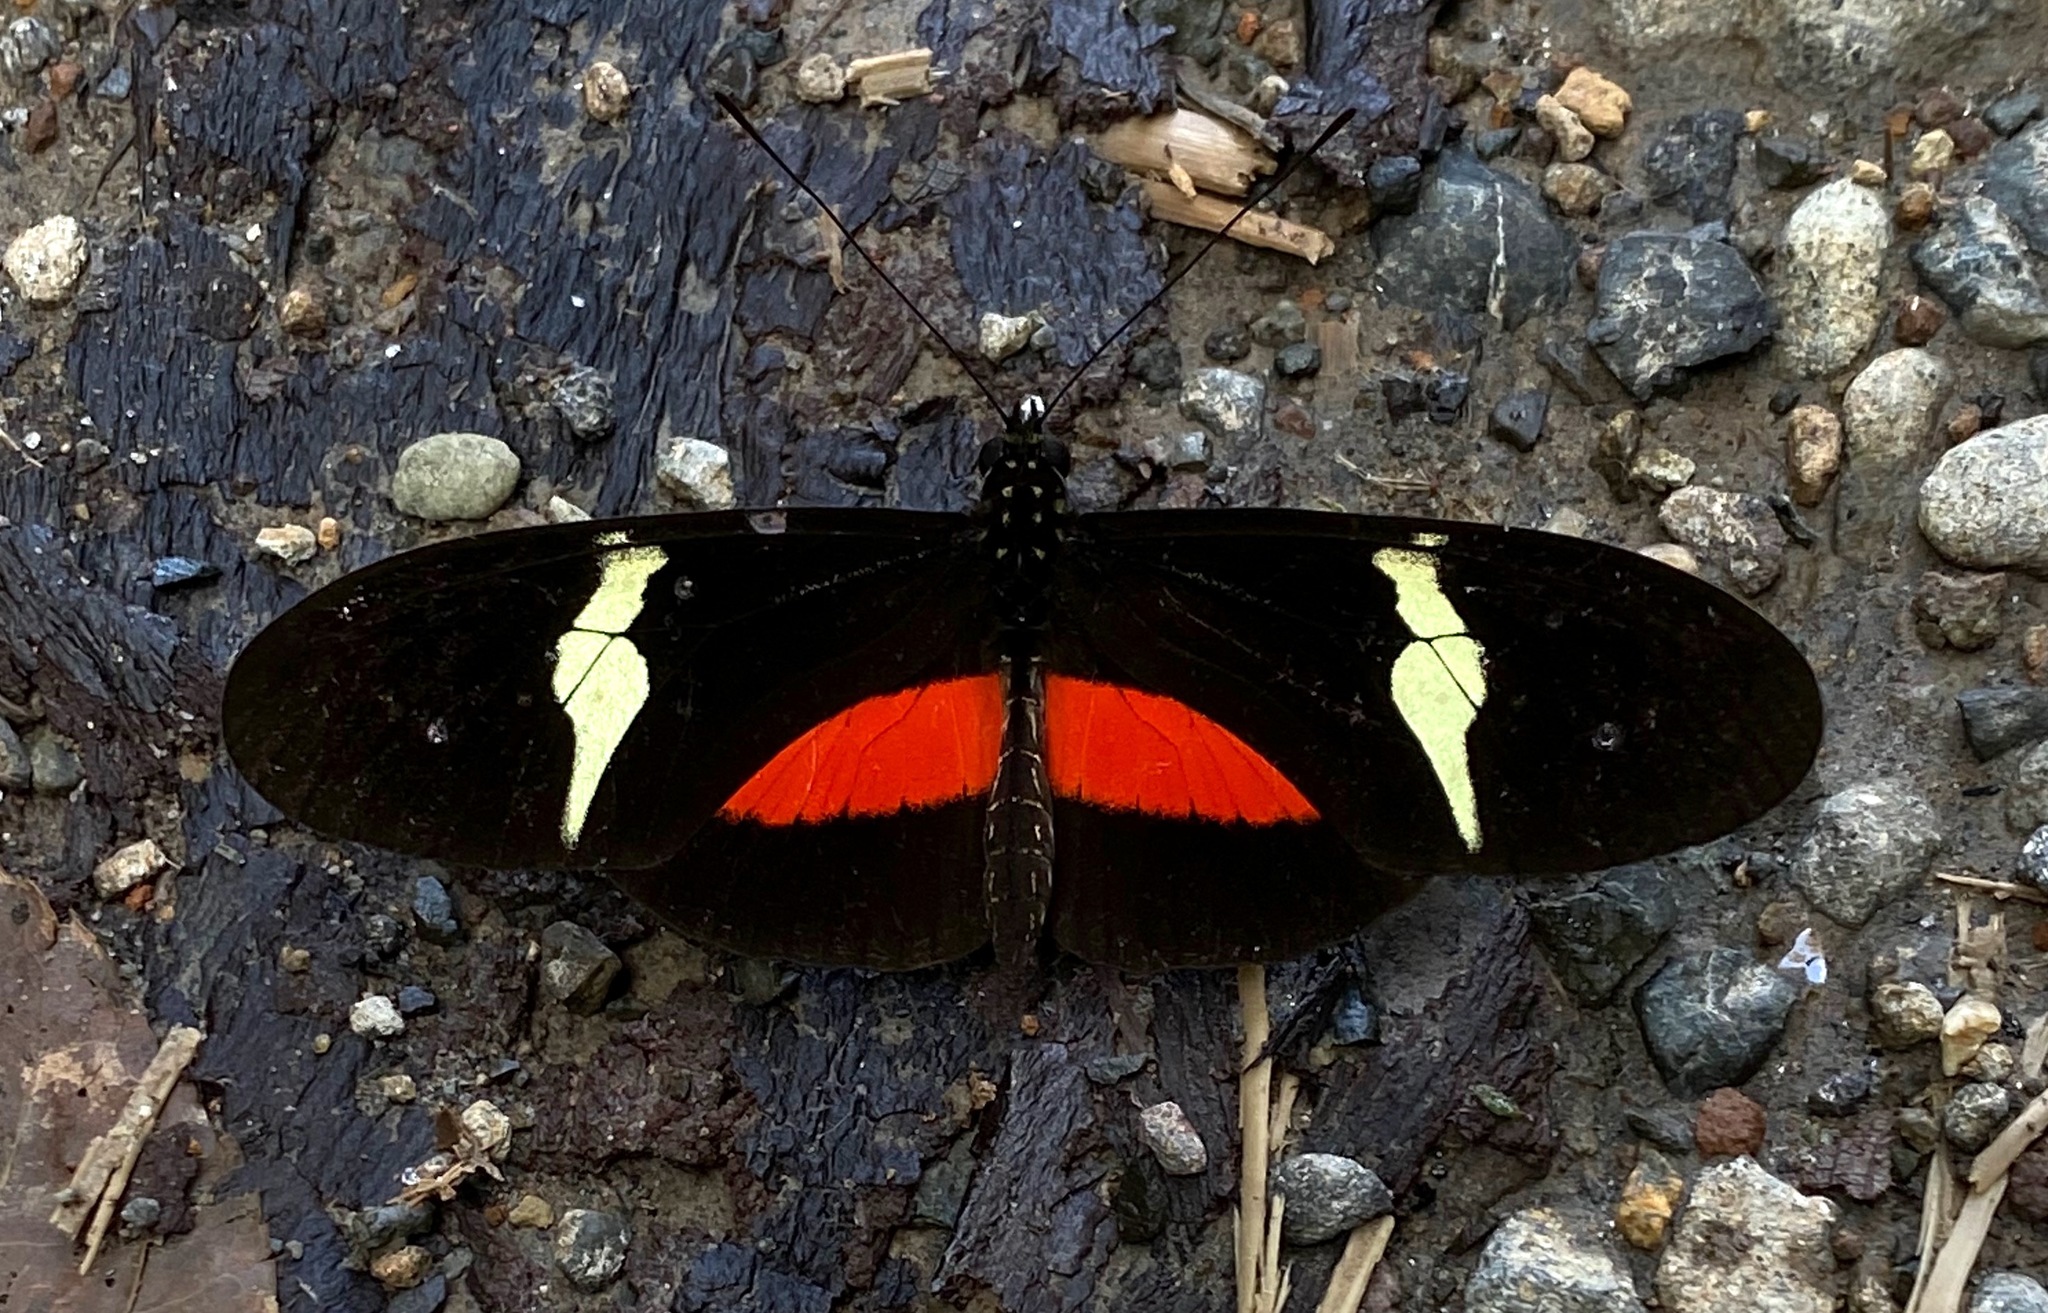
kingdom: Animalia
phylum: Arthropoda
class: Insecta
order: Lepidoptera
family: Nymphalidae
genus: Heliconius
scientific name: Heliconius clysonymus
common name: Clysonymus longwing
